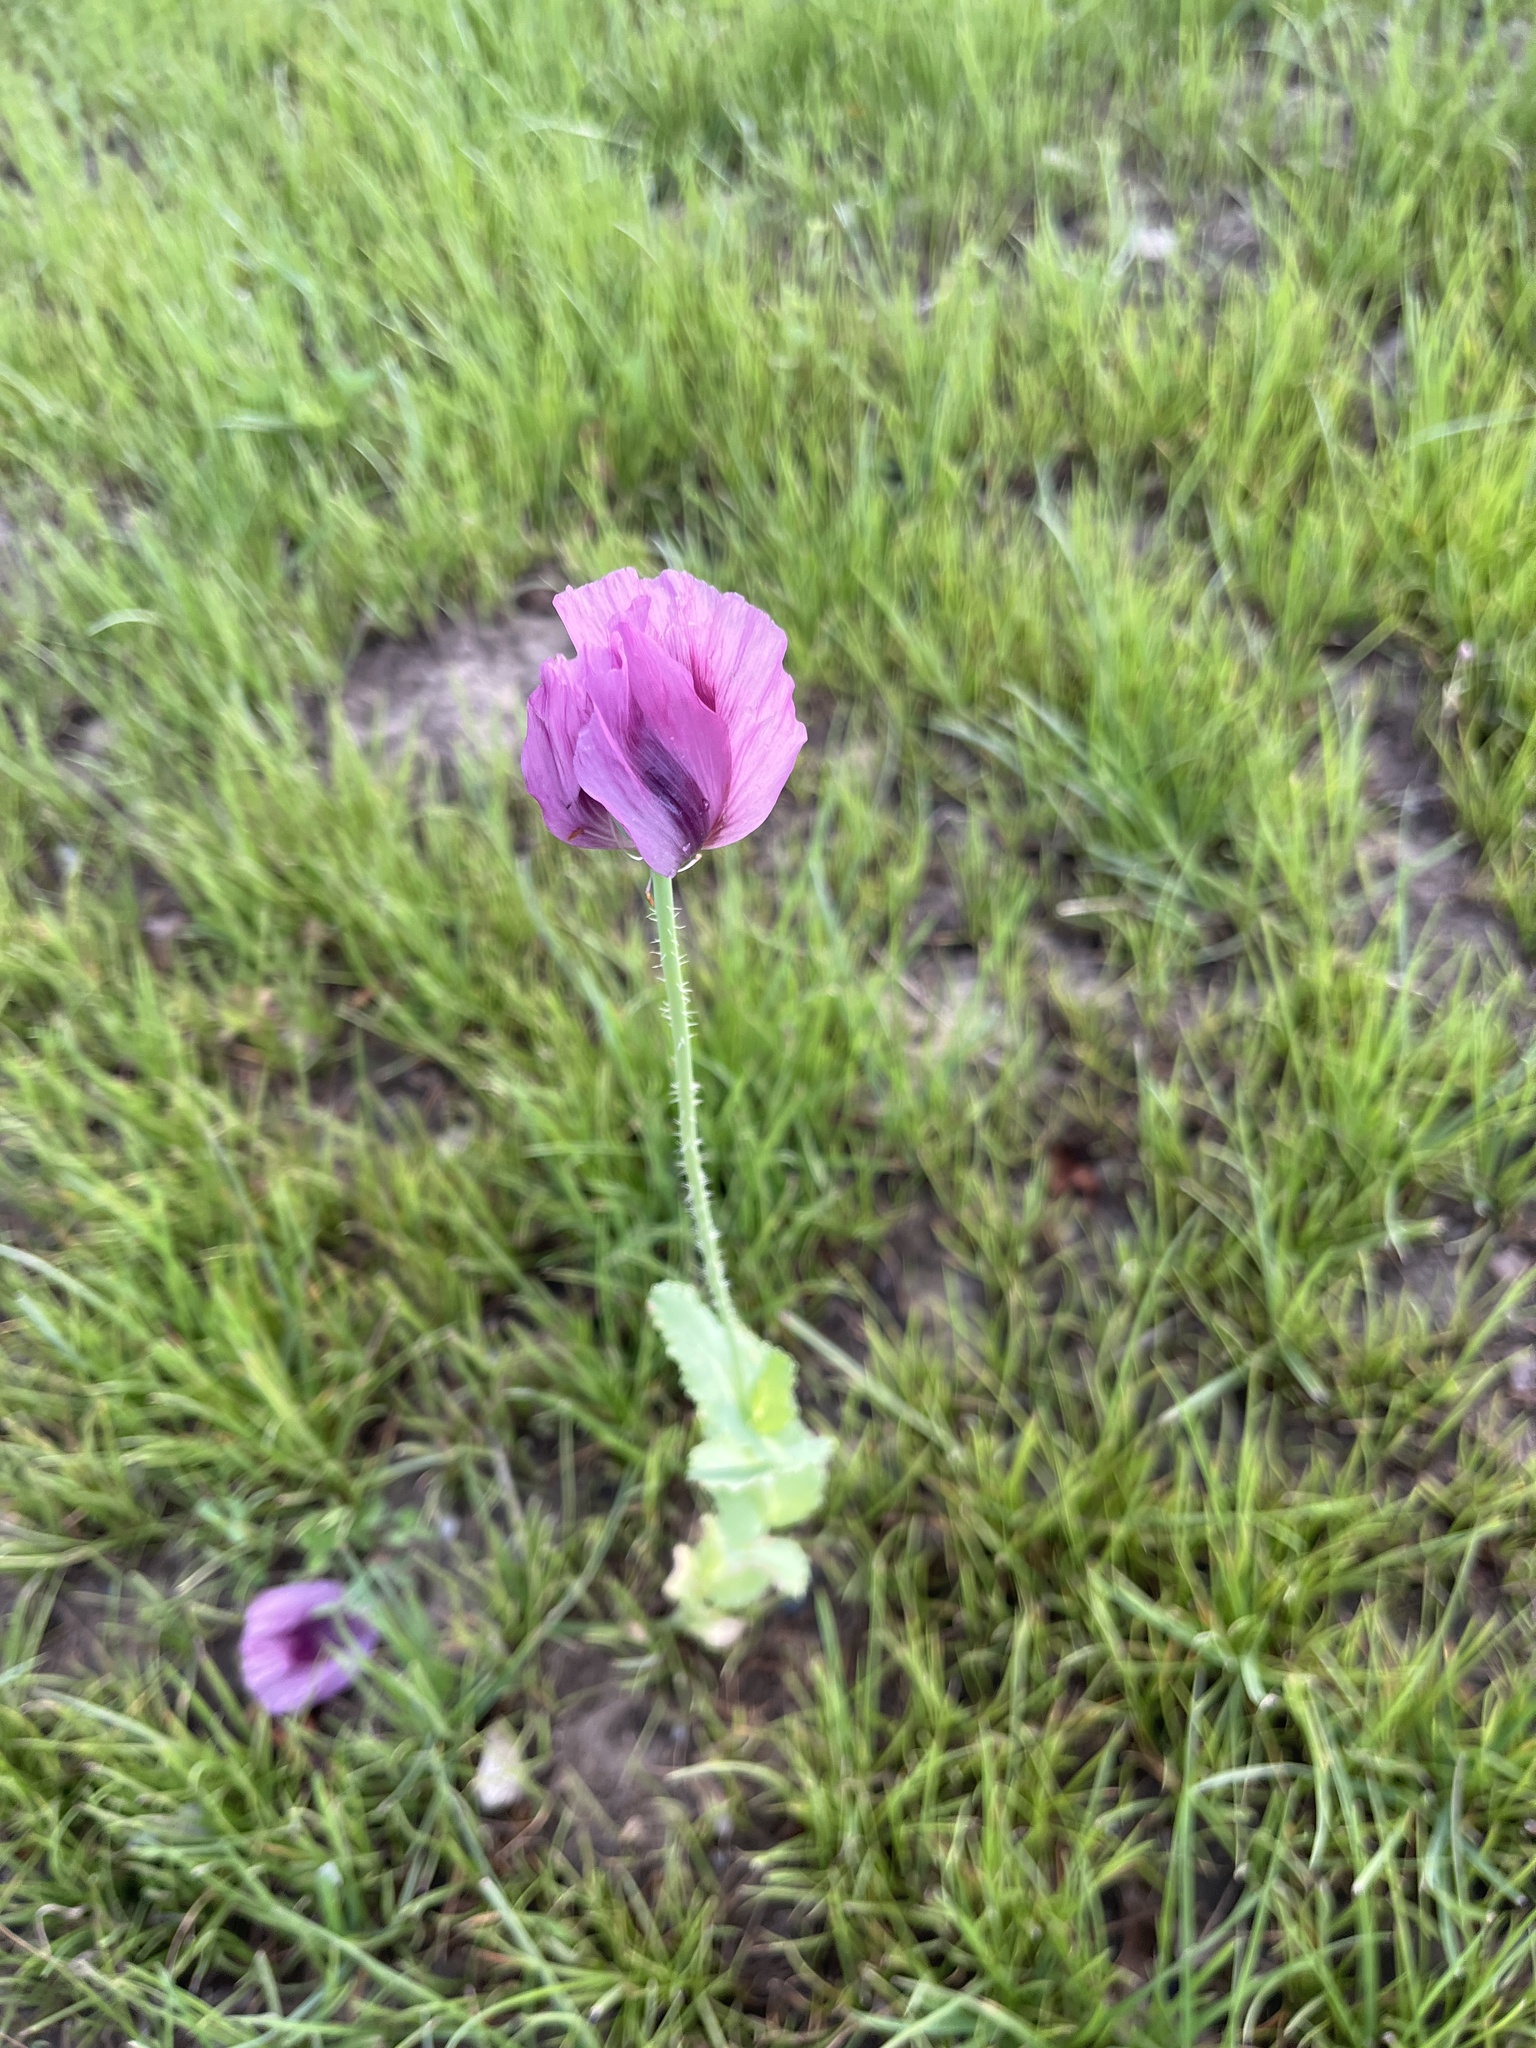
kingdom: Plantae
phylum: Tracheophyta
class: Magnoliopsida
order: Ranunculales
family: Papaveraceae
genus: Papaver
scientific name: Papaver somniferum
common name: Opium poppy
